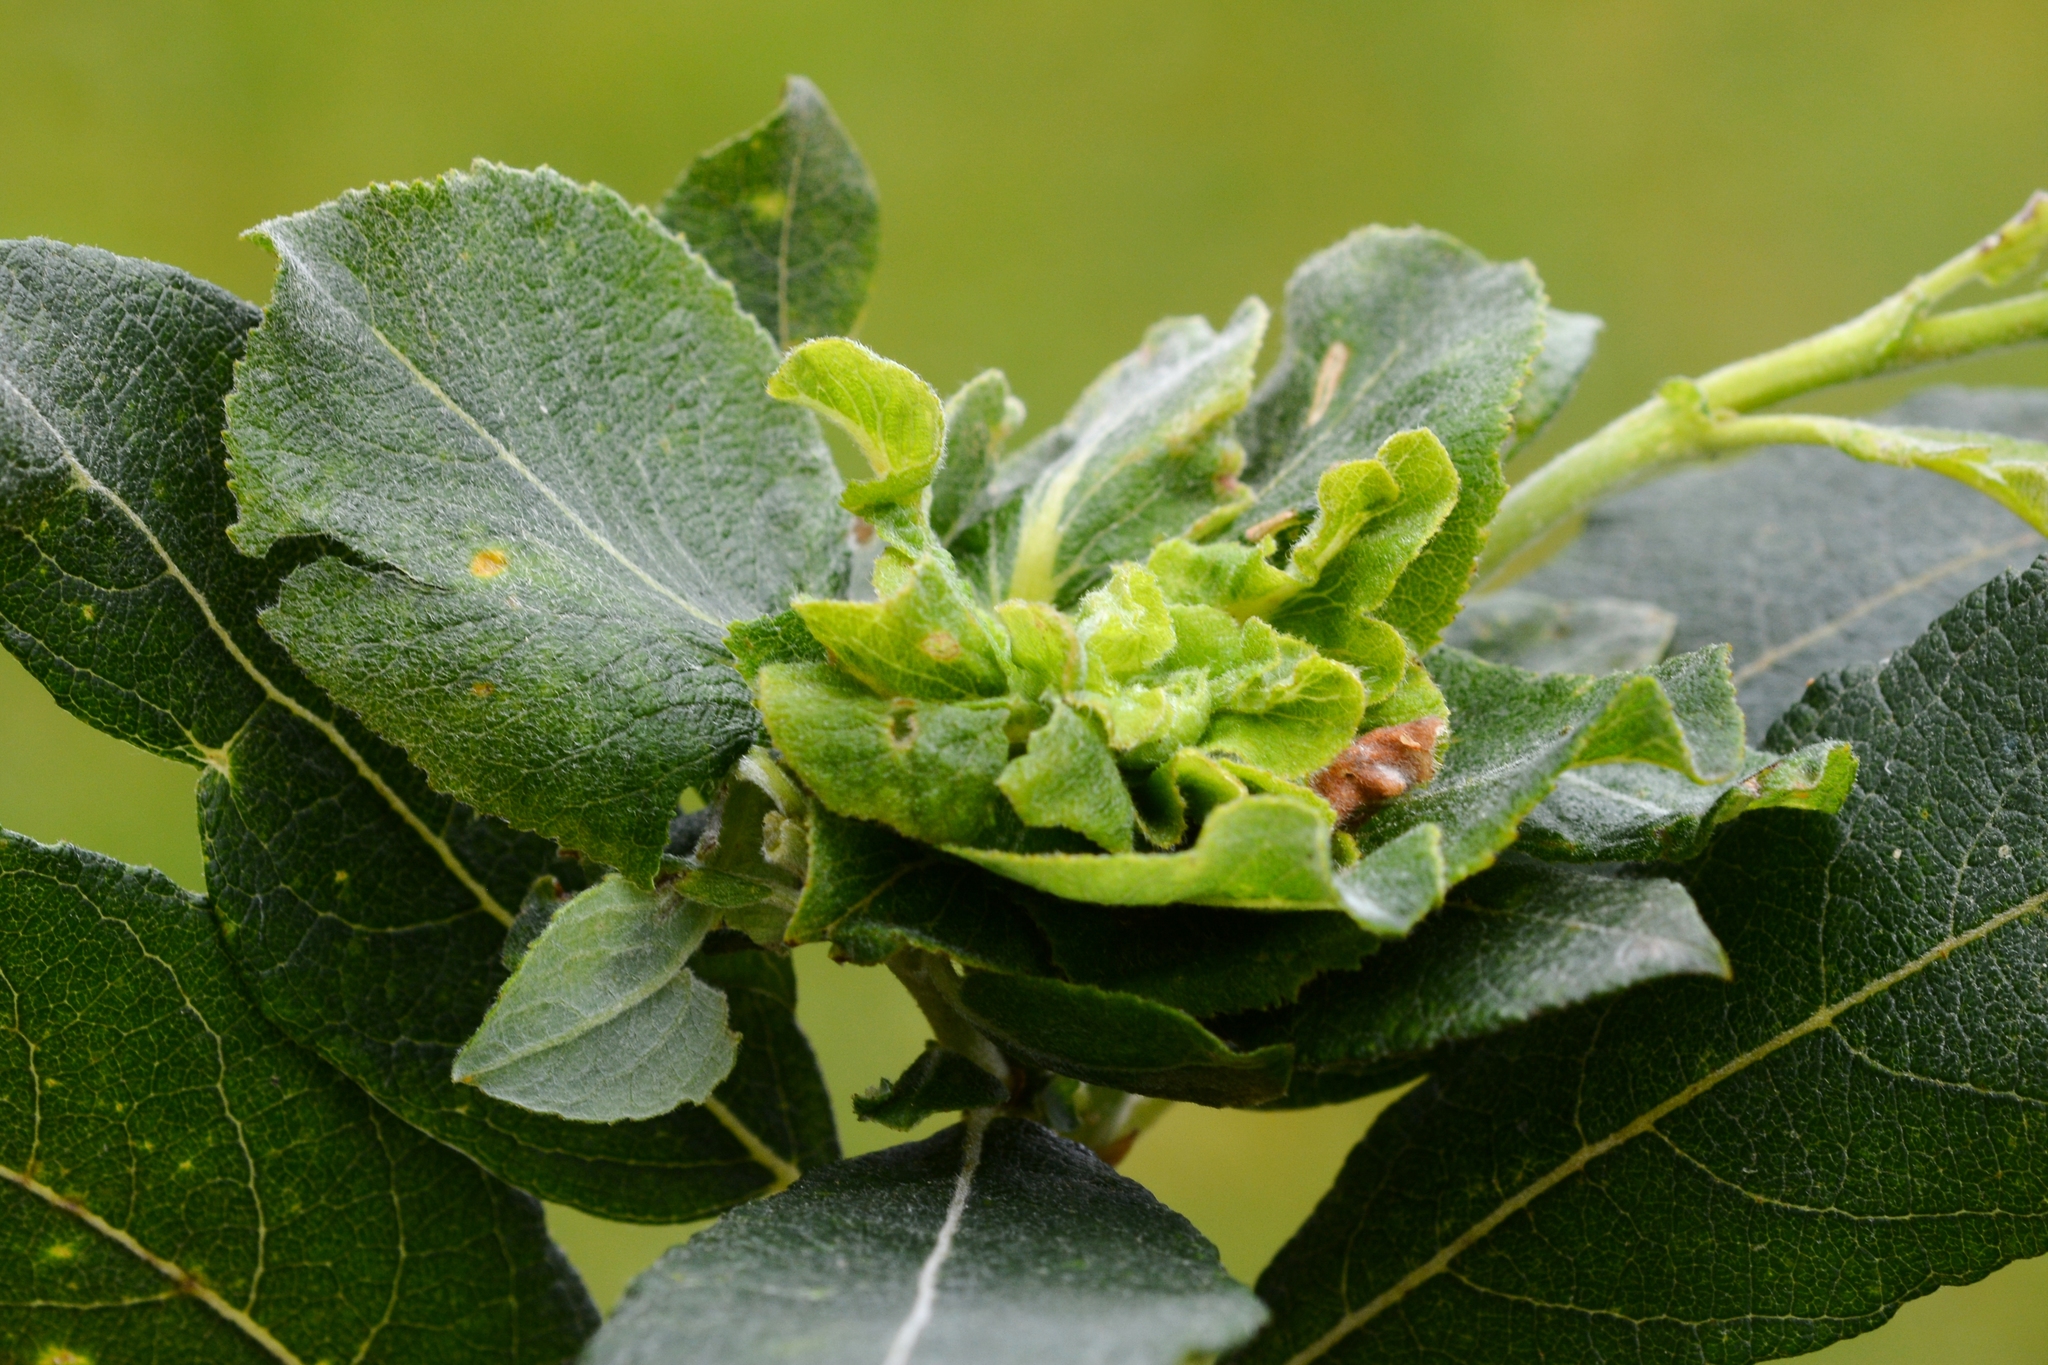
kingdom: Animalia
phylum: Arthropoda
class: Insecta
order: Diptera
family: Cecidomyiidae
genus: Rabdophaga
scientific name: Rabdophaga rosaria
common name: Willow rose gall midge
